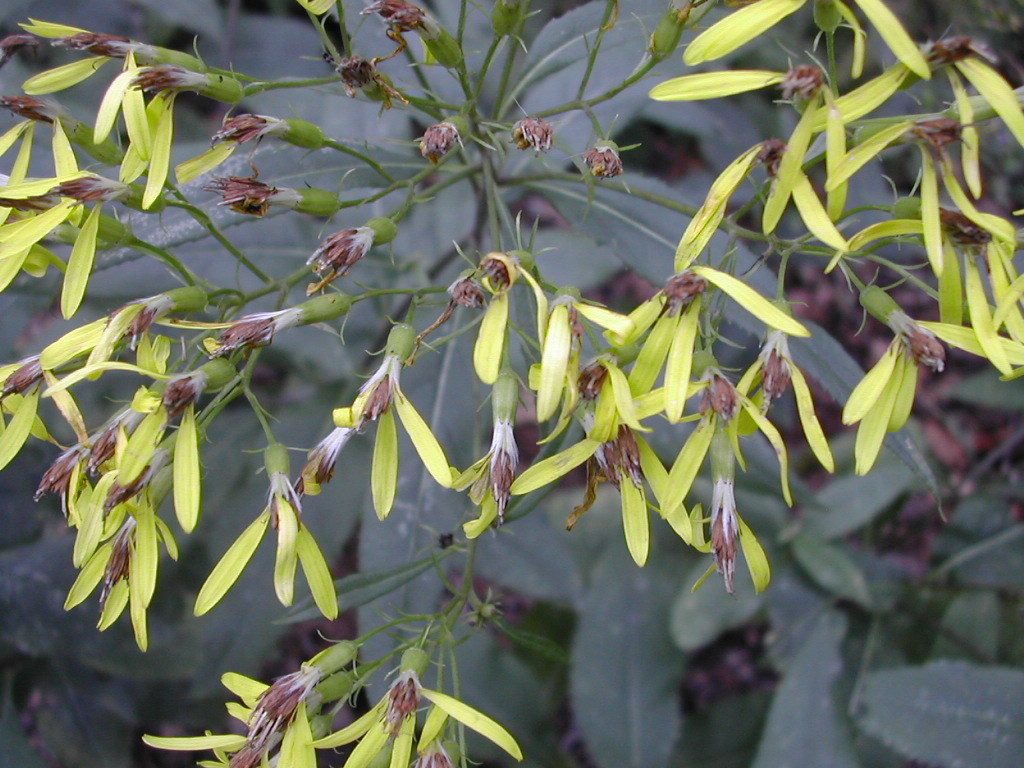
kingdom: Plantae
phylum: Tracheophyta
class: Magnoliopsida
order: Asterales
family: Asteraceae
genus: Senecio
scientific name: Senecio ovatus
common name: Wood ragwort
